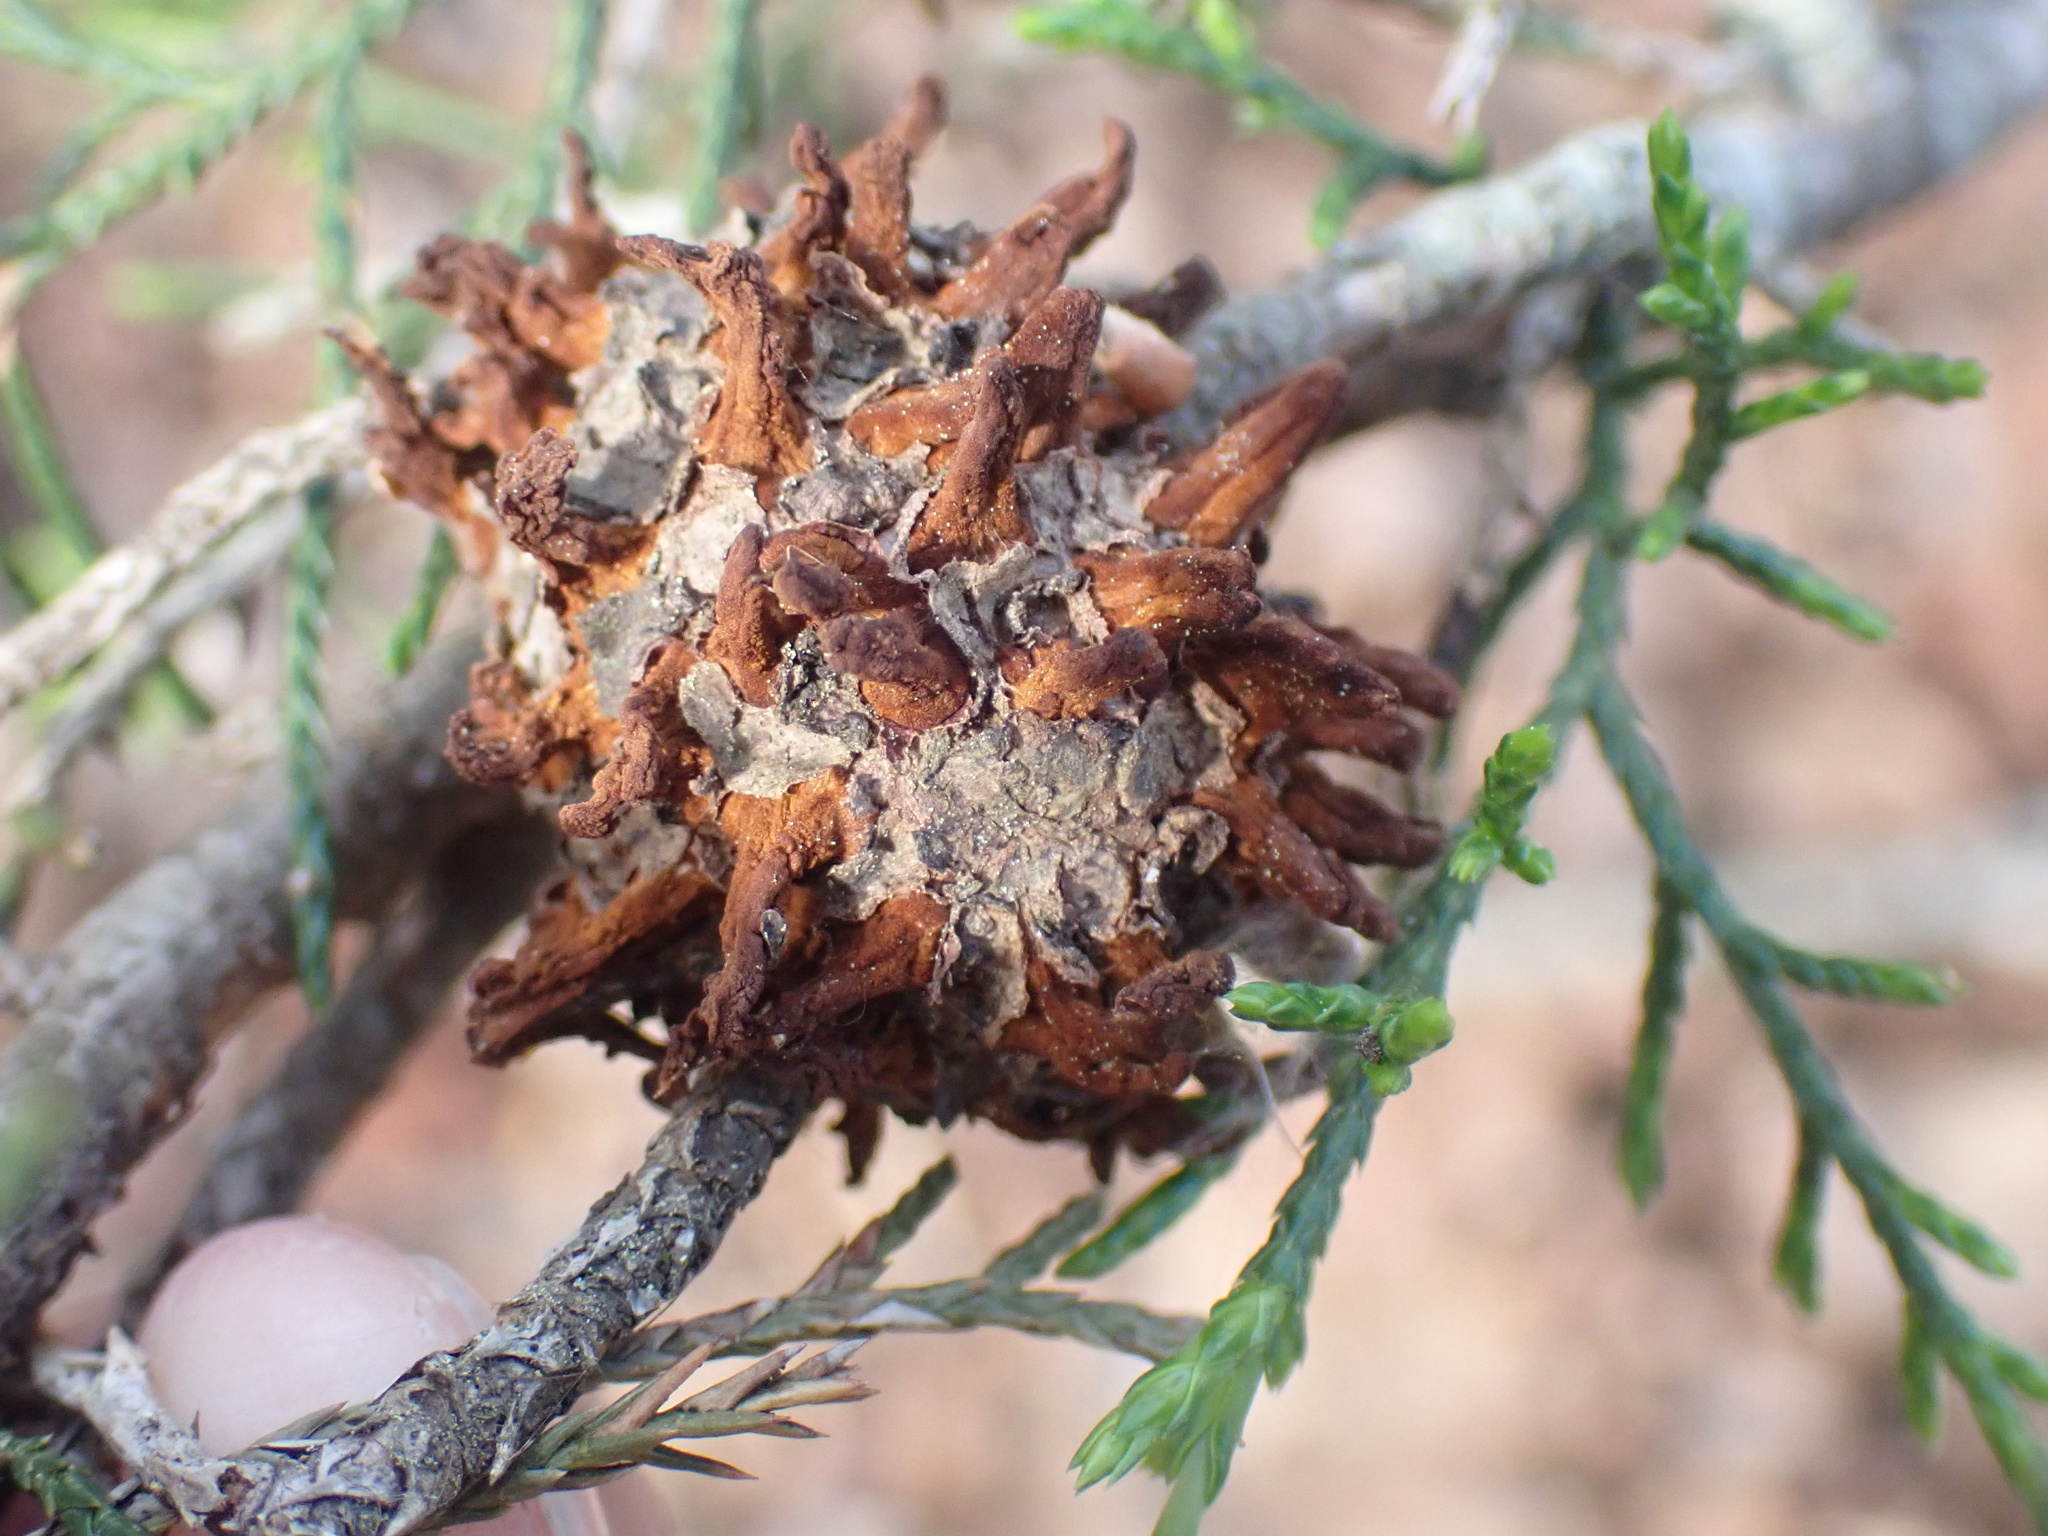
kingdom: Fungi
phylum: Basidiomycota
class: Pucciniomycetes
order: Pucciniales
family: Gymnosporangiaceae
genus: Gymnosporangium
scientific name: Gymnosporangium juniperi-virginianae
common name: Juniper-apple rust
